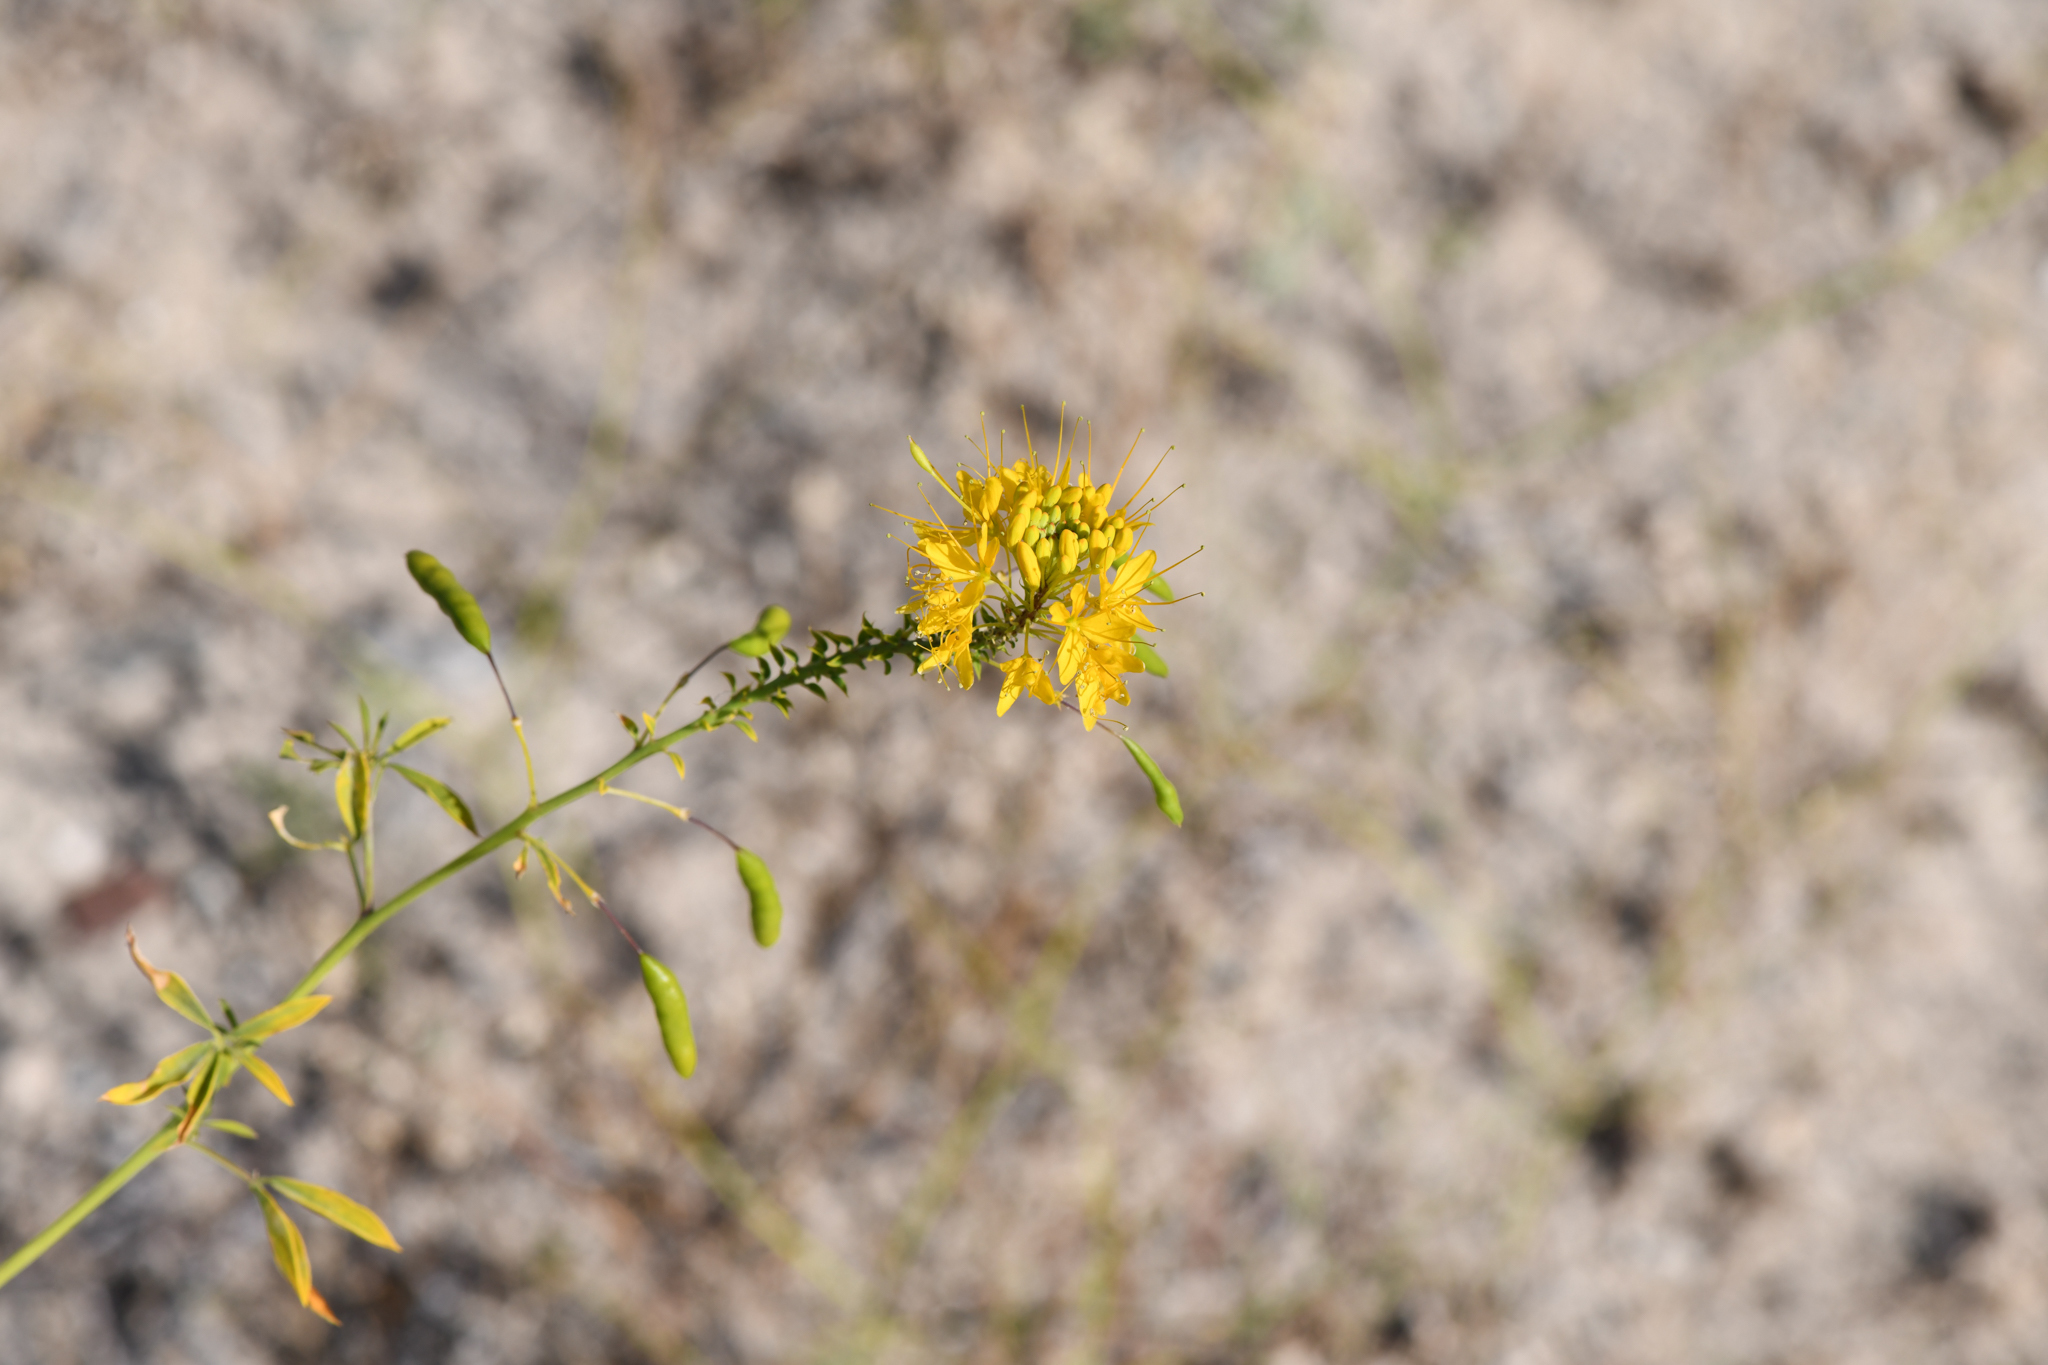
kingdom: Plantae
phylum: Tracheophyta
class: Magnoliopsida
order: Brassicales
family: Cleomaceae
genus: Cleomella
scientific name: Cleomella lutea
